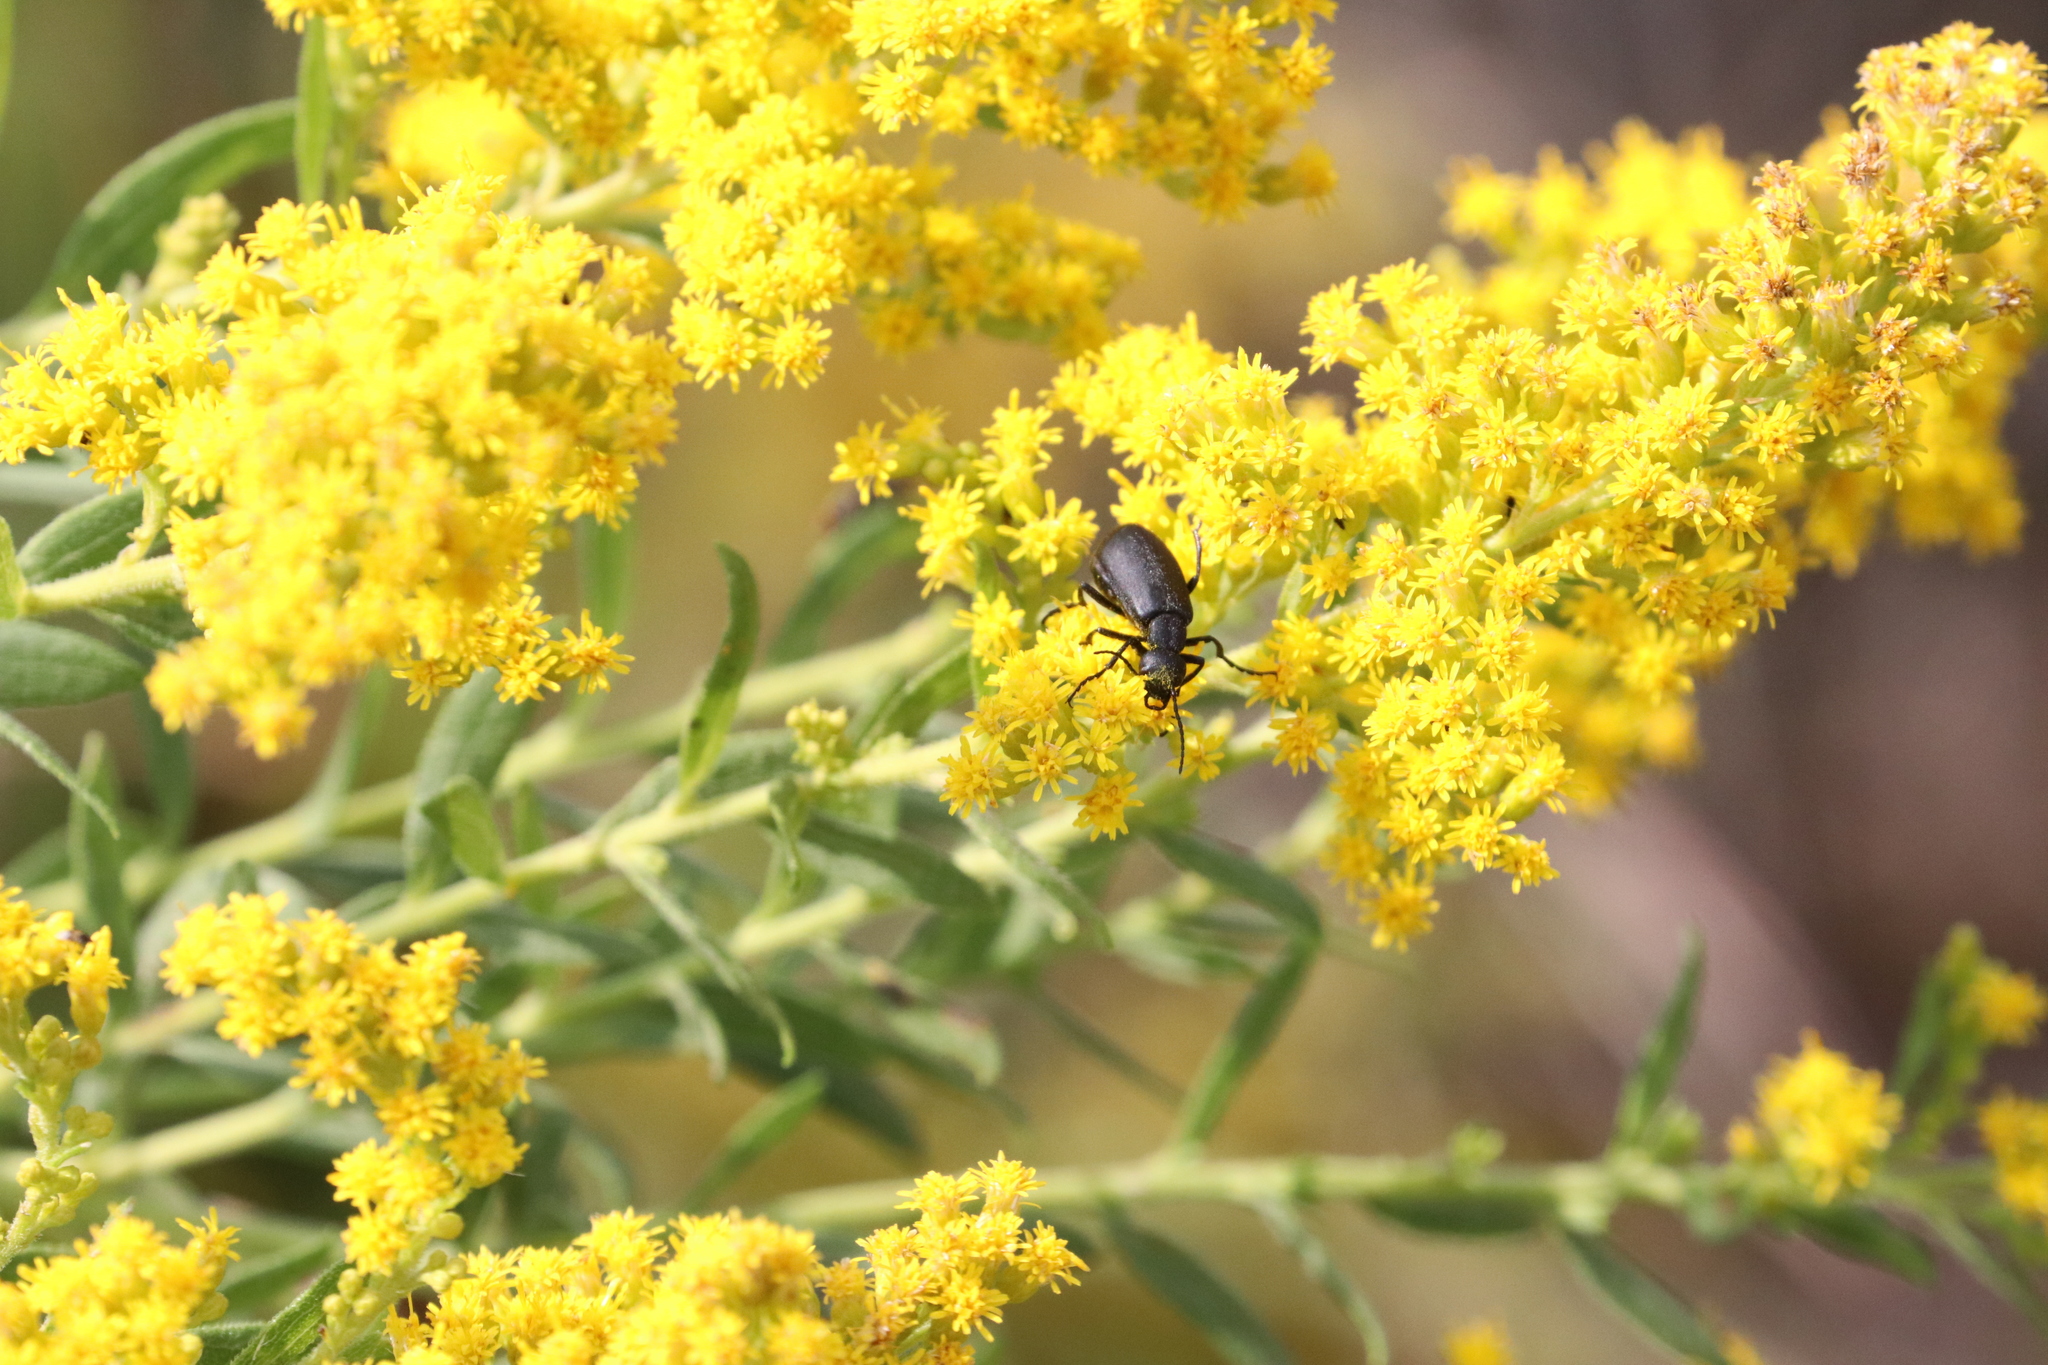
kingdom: Animalia
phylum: Arthropoda
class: Insecta
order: Coleoptera
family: Meloidae
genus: Epicauta
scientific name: Epicauta pensylvanica
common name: Black blister beetle
